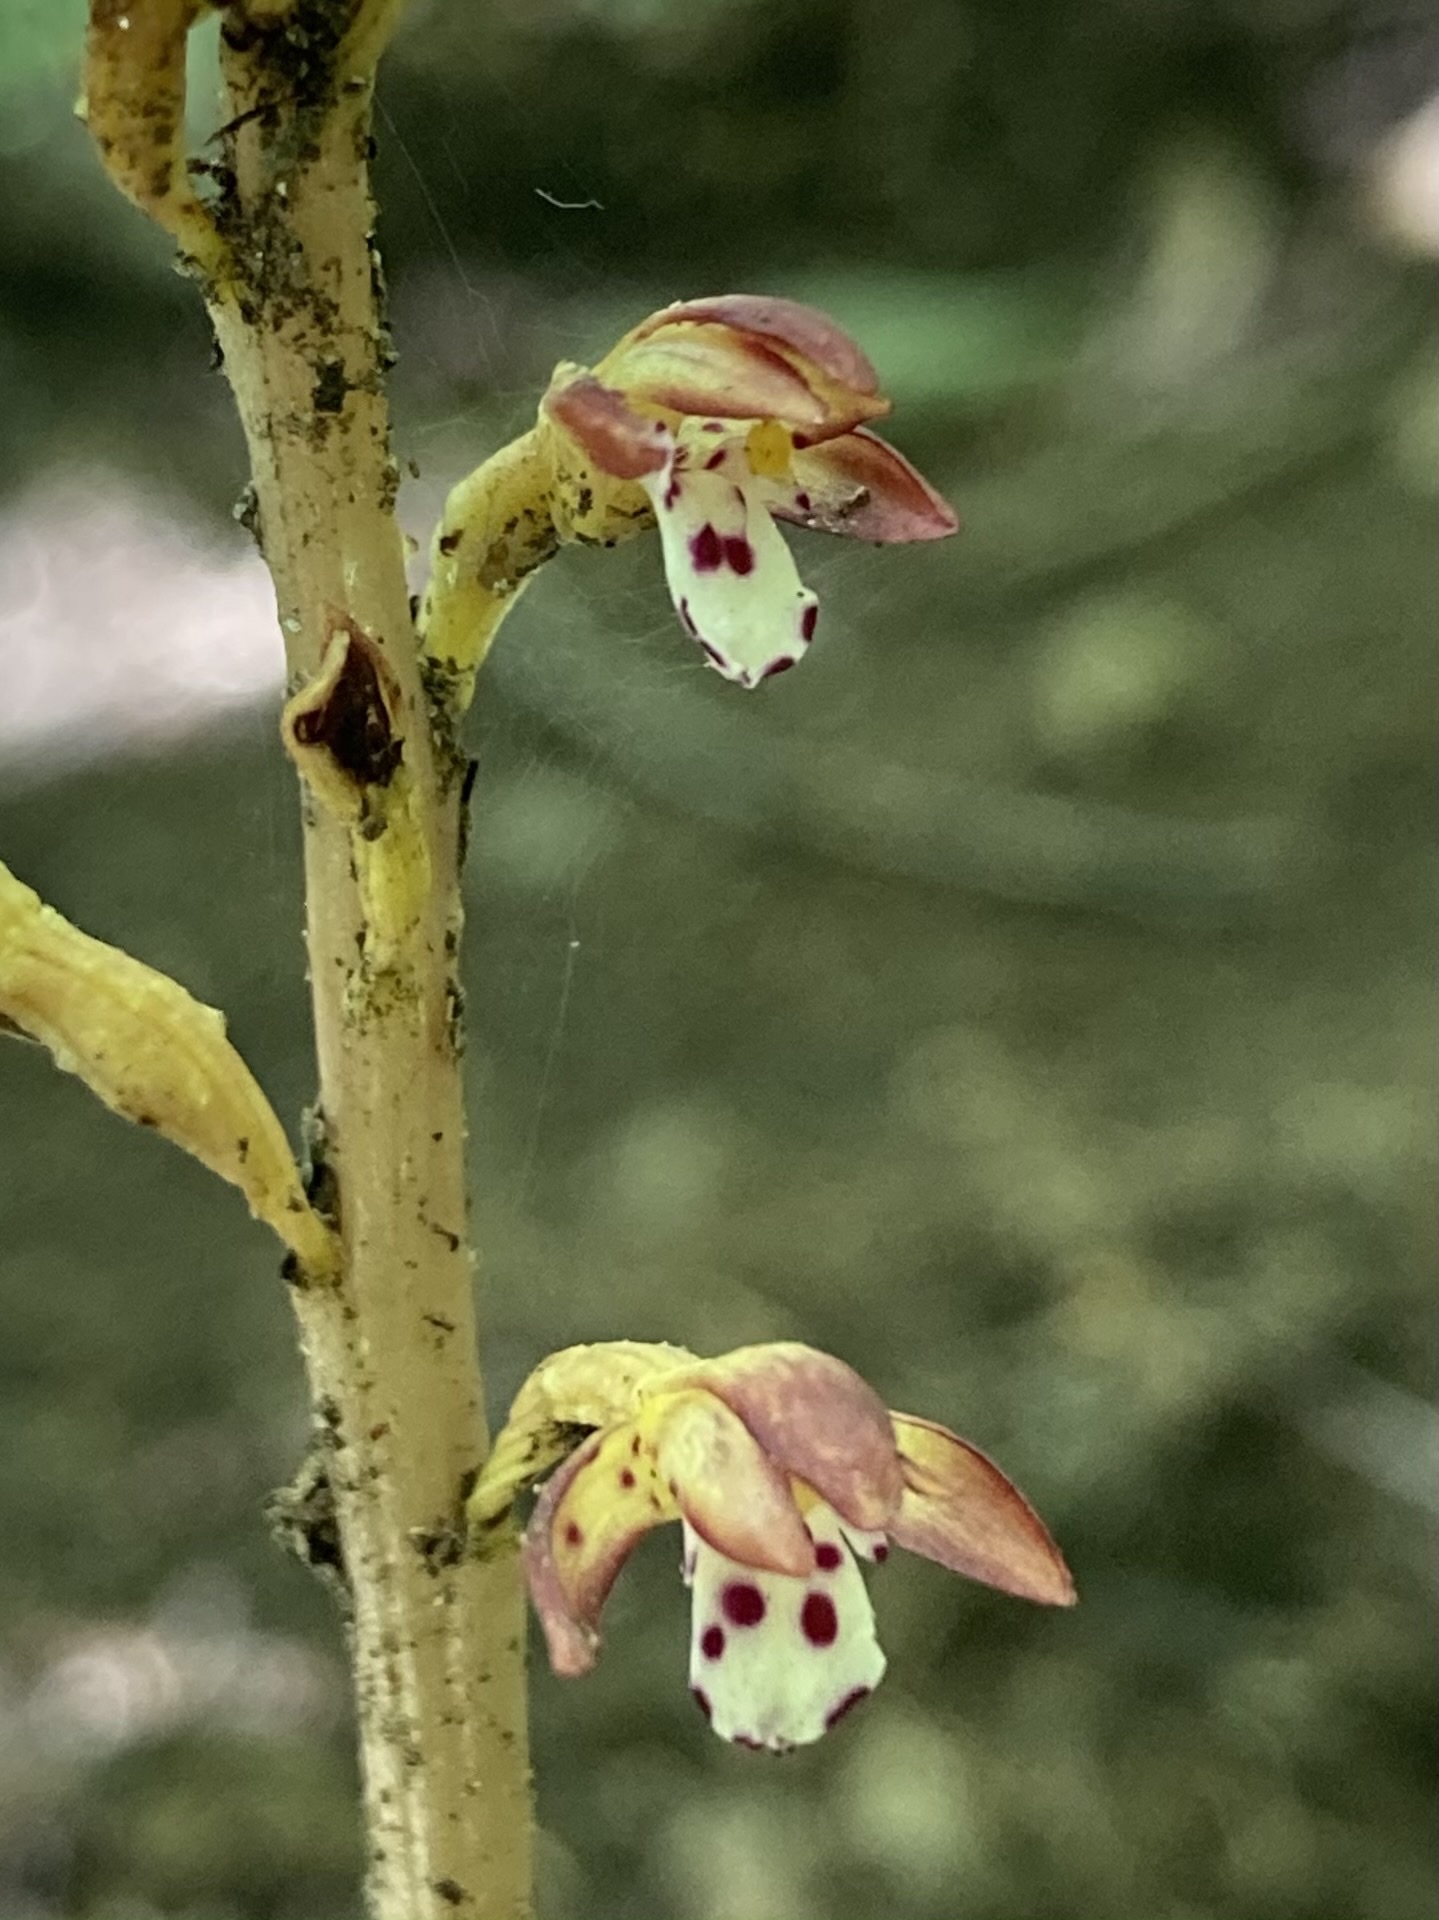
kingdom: Plantae
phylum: Tracheophyta
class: Liliopsida
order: Asparagales
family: Orchidaceae
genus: Corallorhiza
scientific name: Corallorhiza maculata
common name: Spotted coralroot
